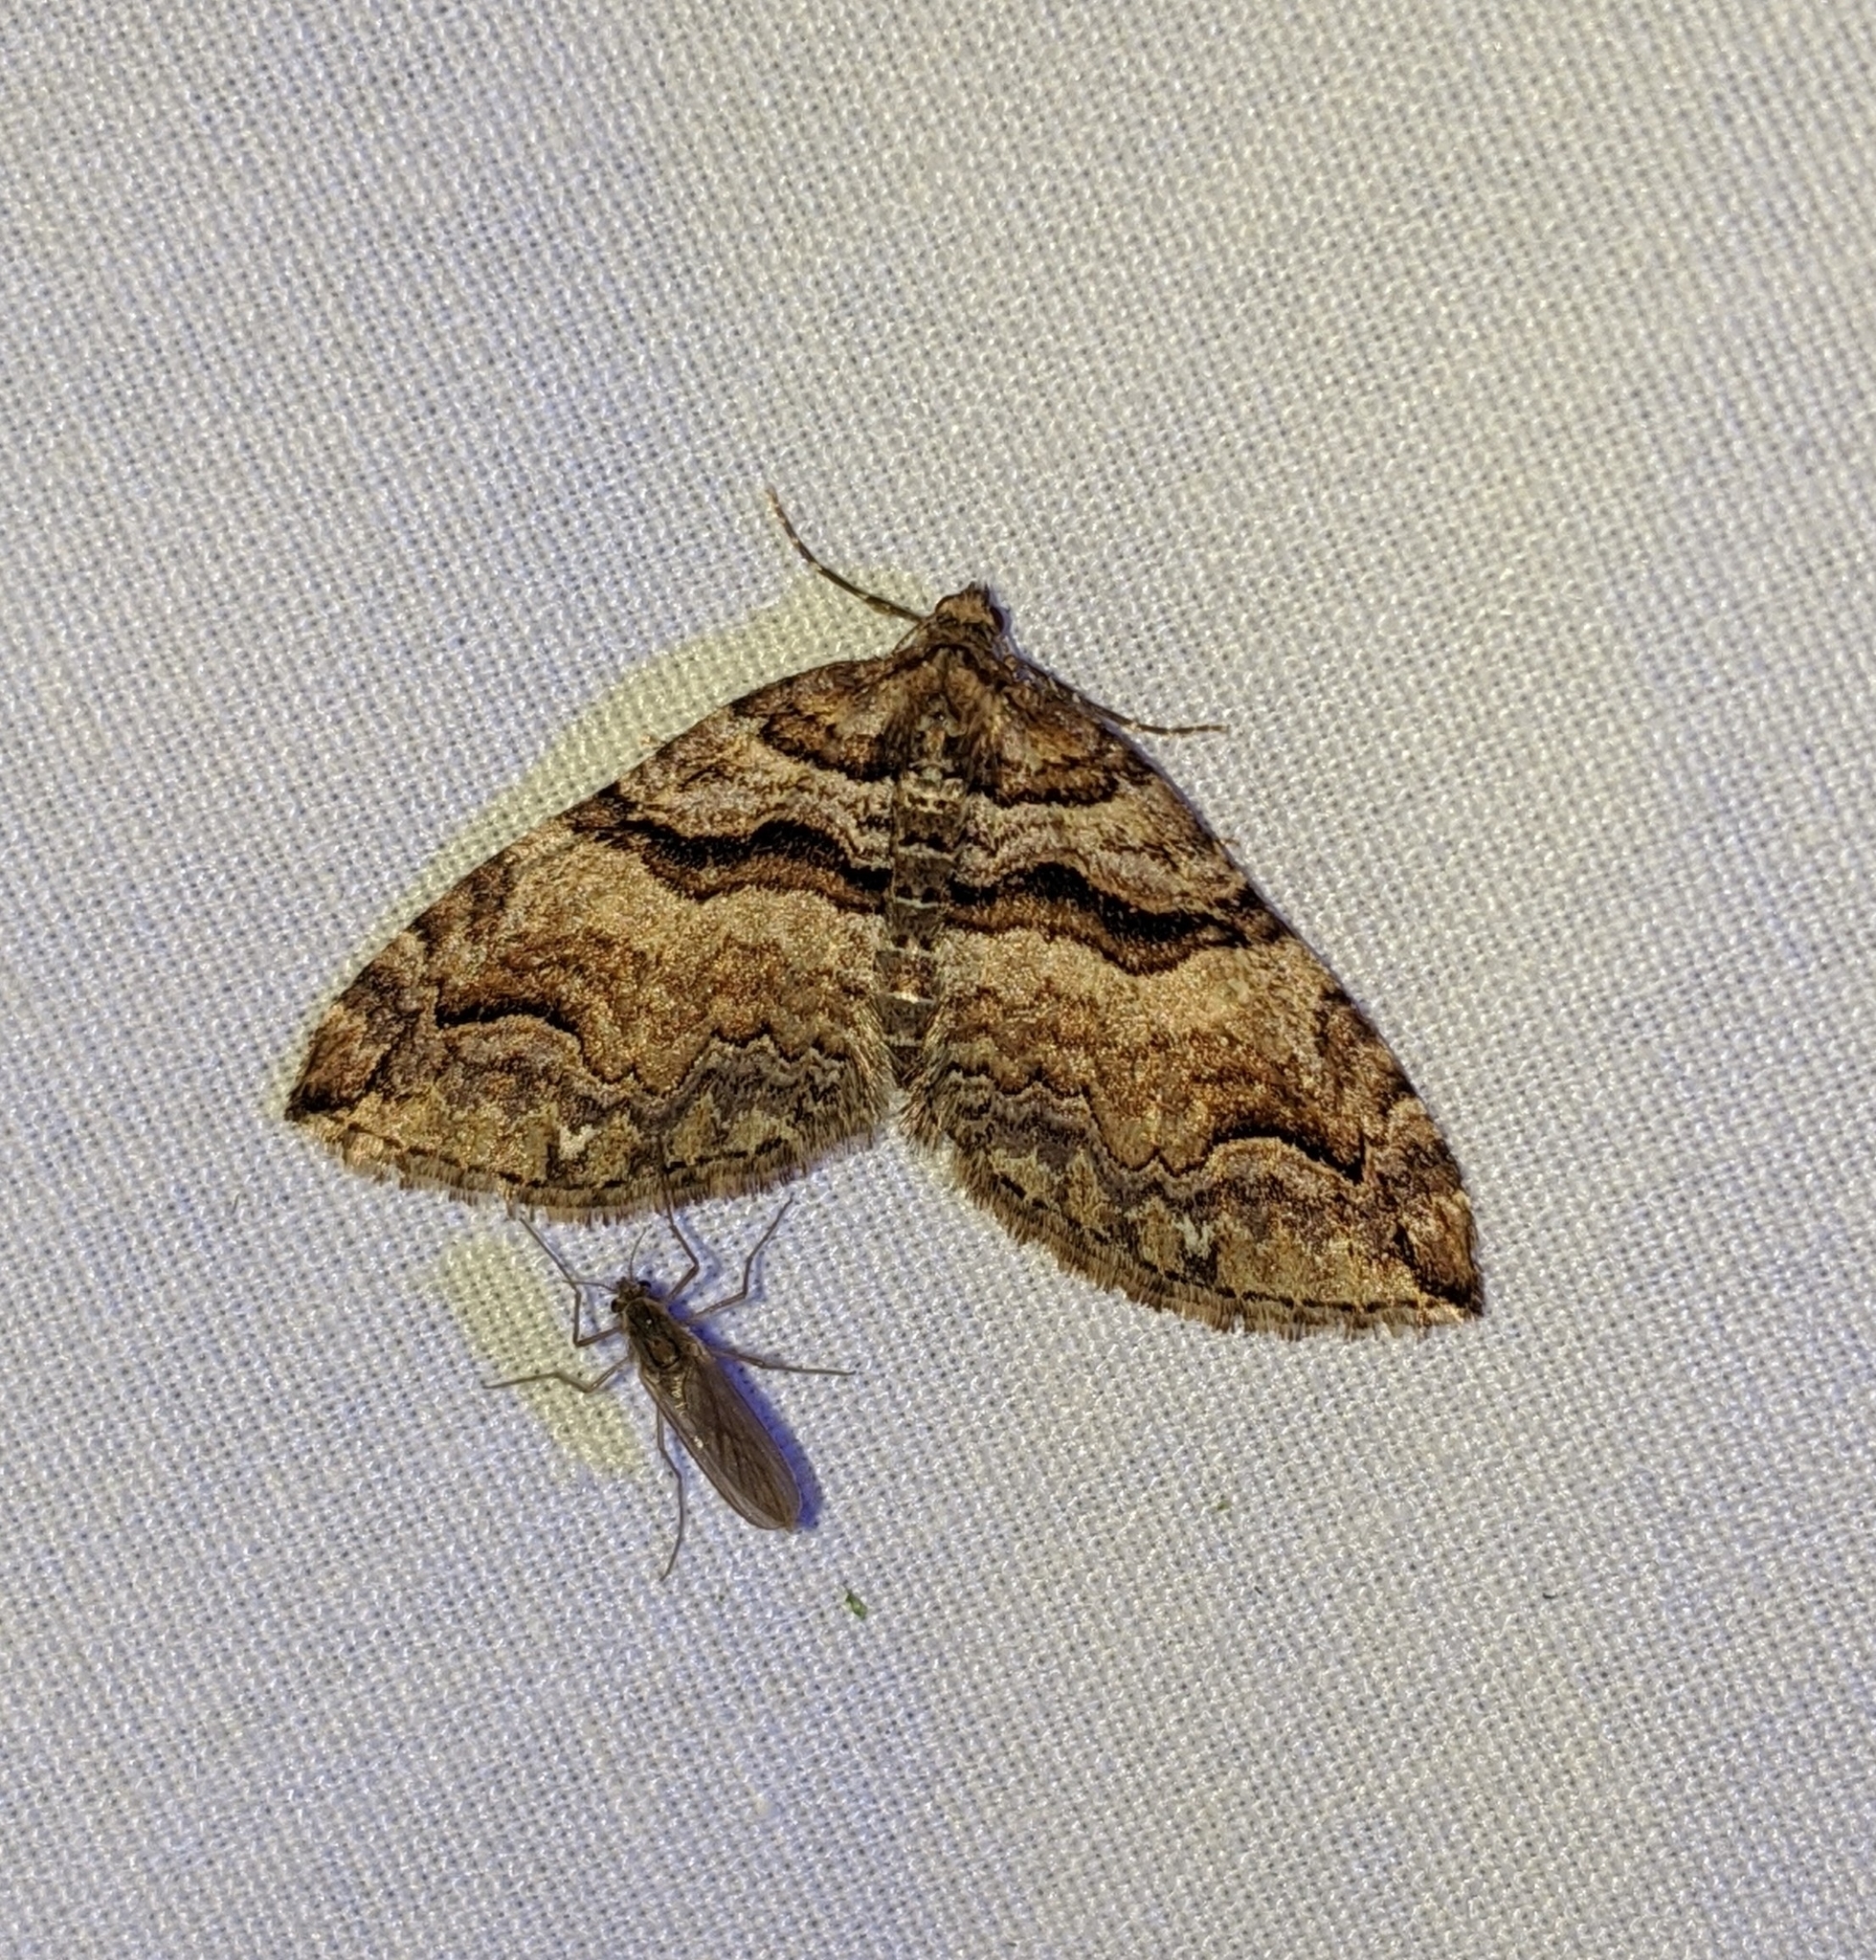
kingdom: Animalia
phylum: Arthropoda
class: Insecta
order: Lepidoptera
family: Geometridae
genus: Anticlea
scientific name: Anticlea vasiliata
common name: Variable carpet
